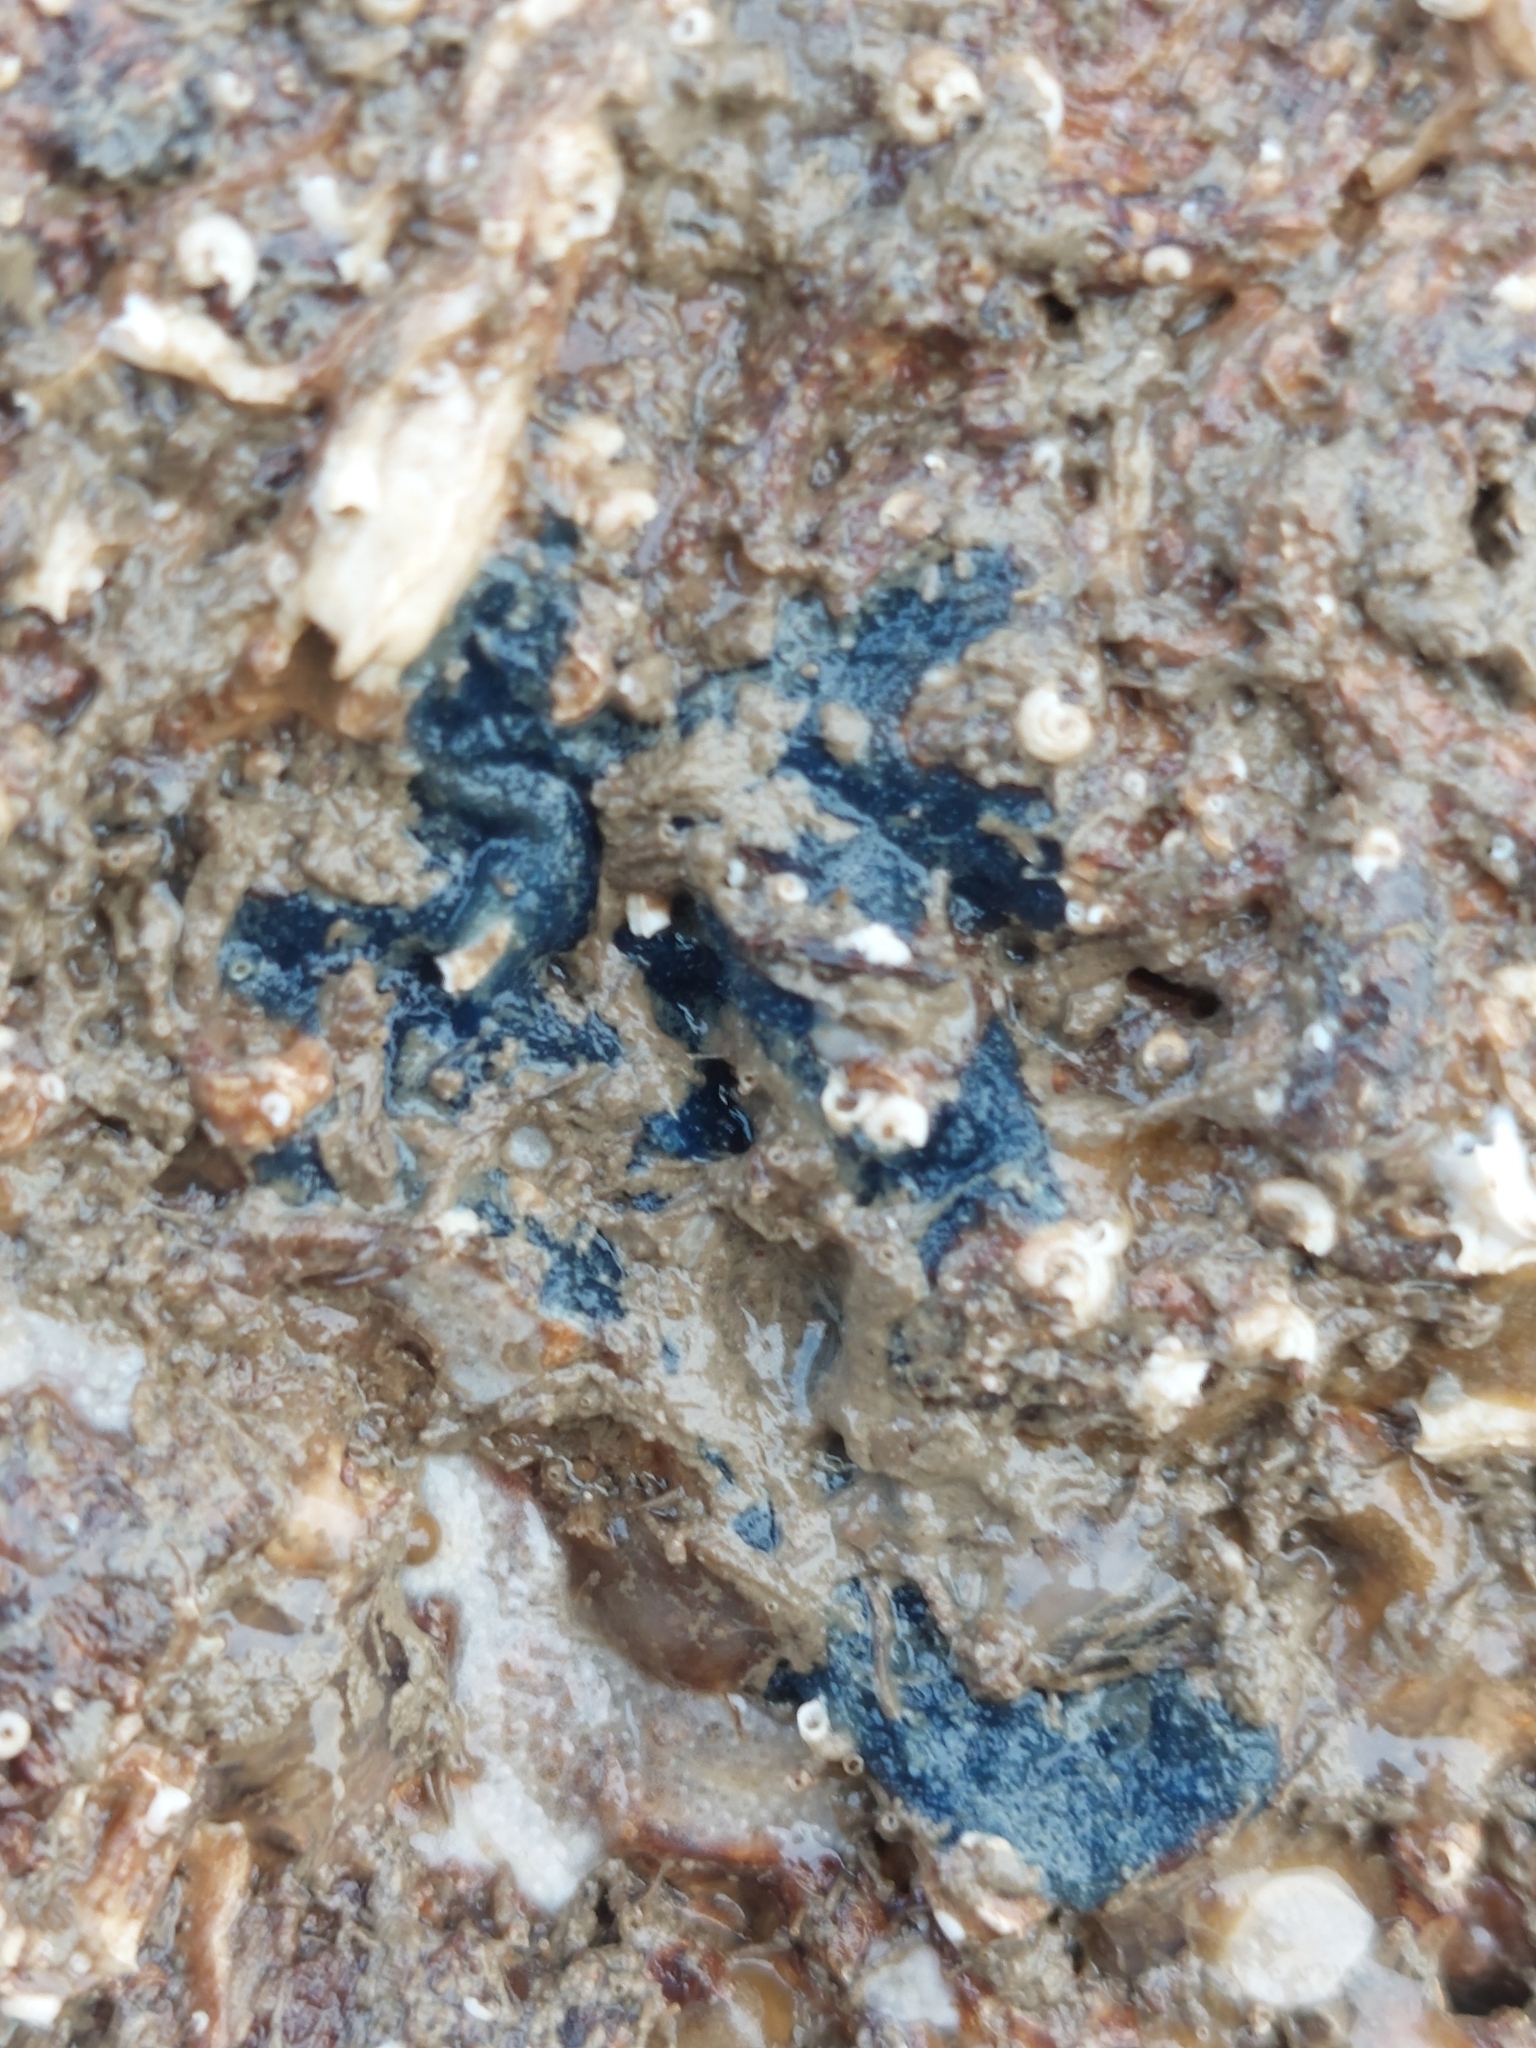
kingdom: Animalia
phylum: Porifera
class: Demospongiae
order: Suberitida
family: Suberitidae
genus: Terpios
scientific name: Terpios gelatinosus
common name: Blue encrusting sponge
